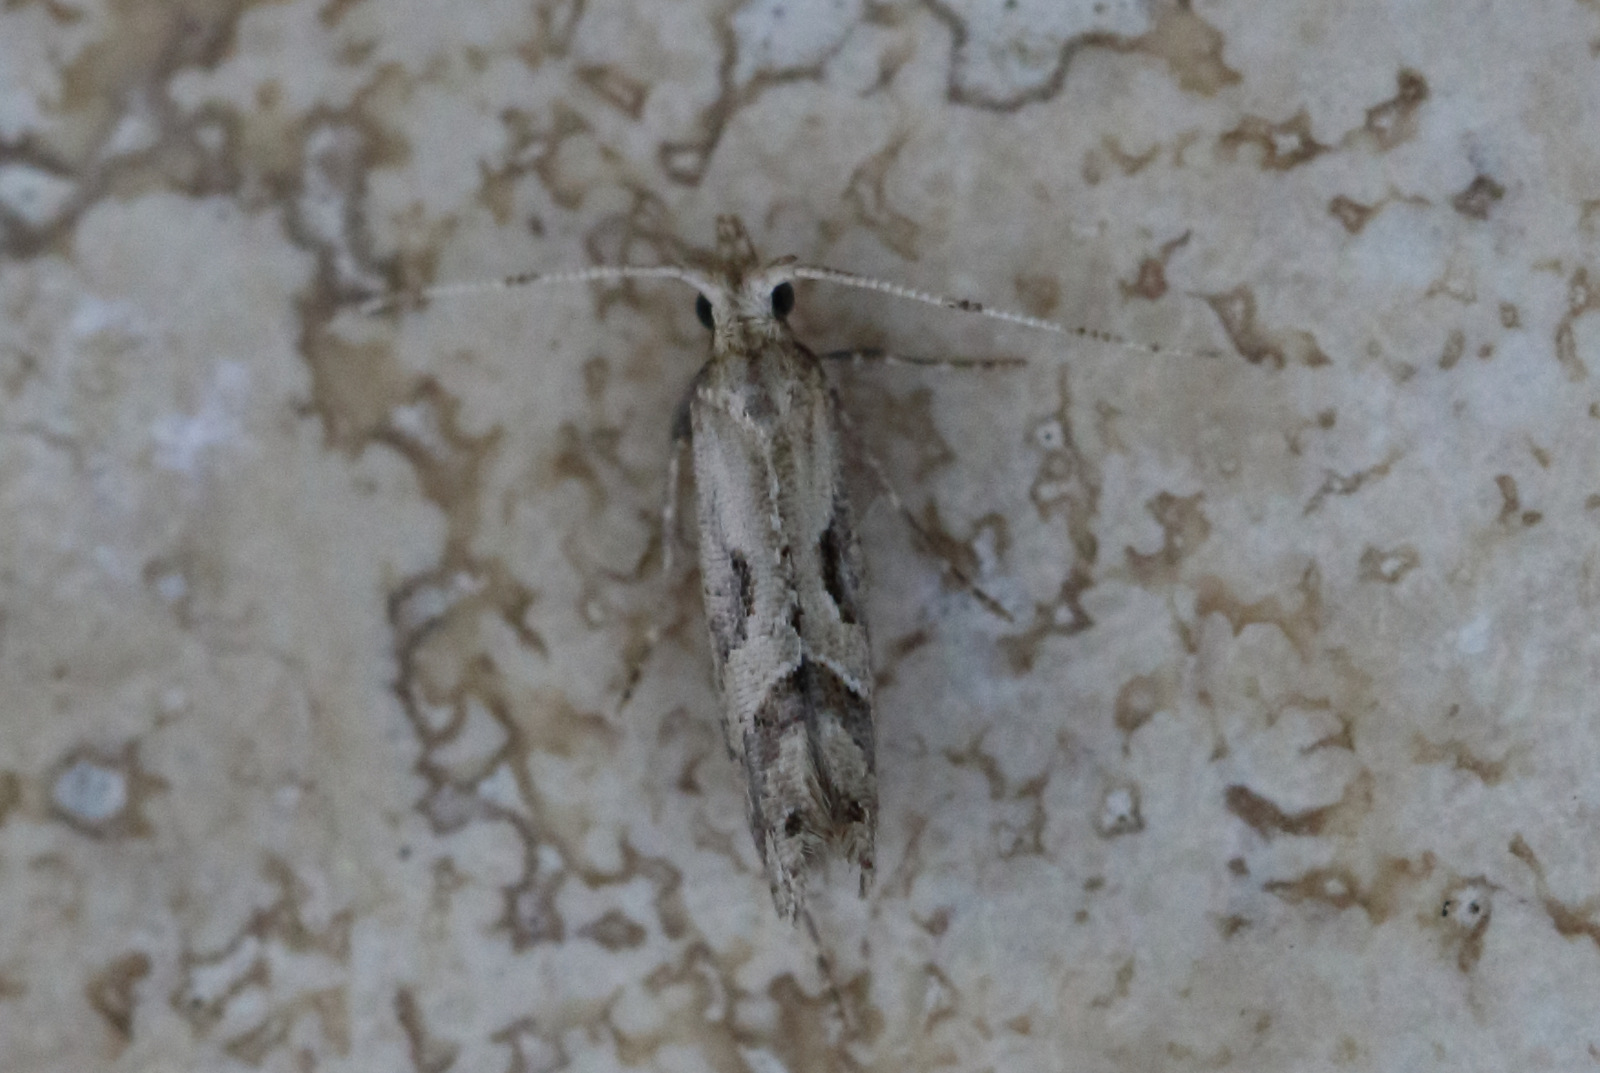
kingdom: Animalia
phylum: Arthropoda
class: Insecta
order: Lepidoptera
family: Plutellidae
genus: Leuroperna
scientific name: Leuroperna sera
